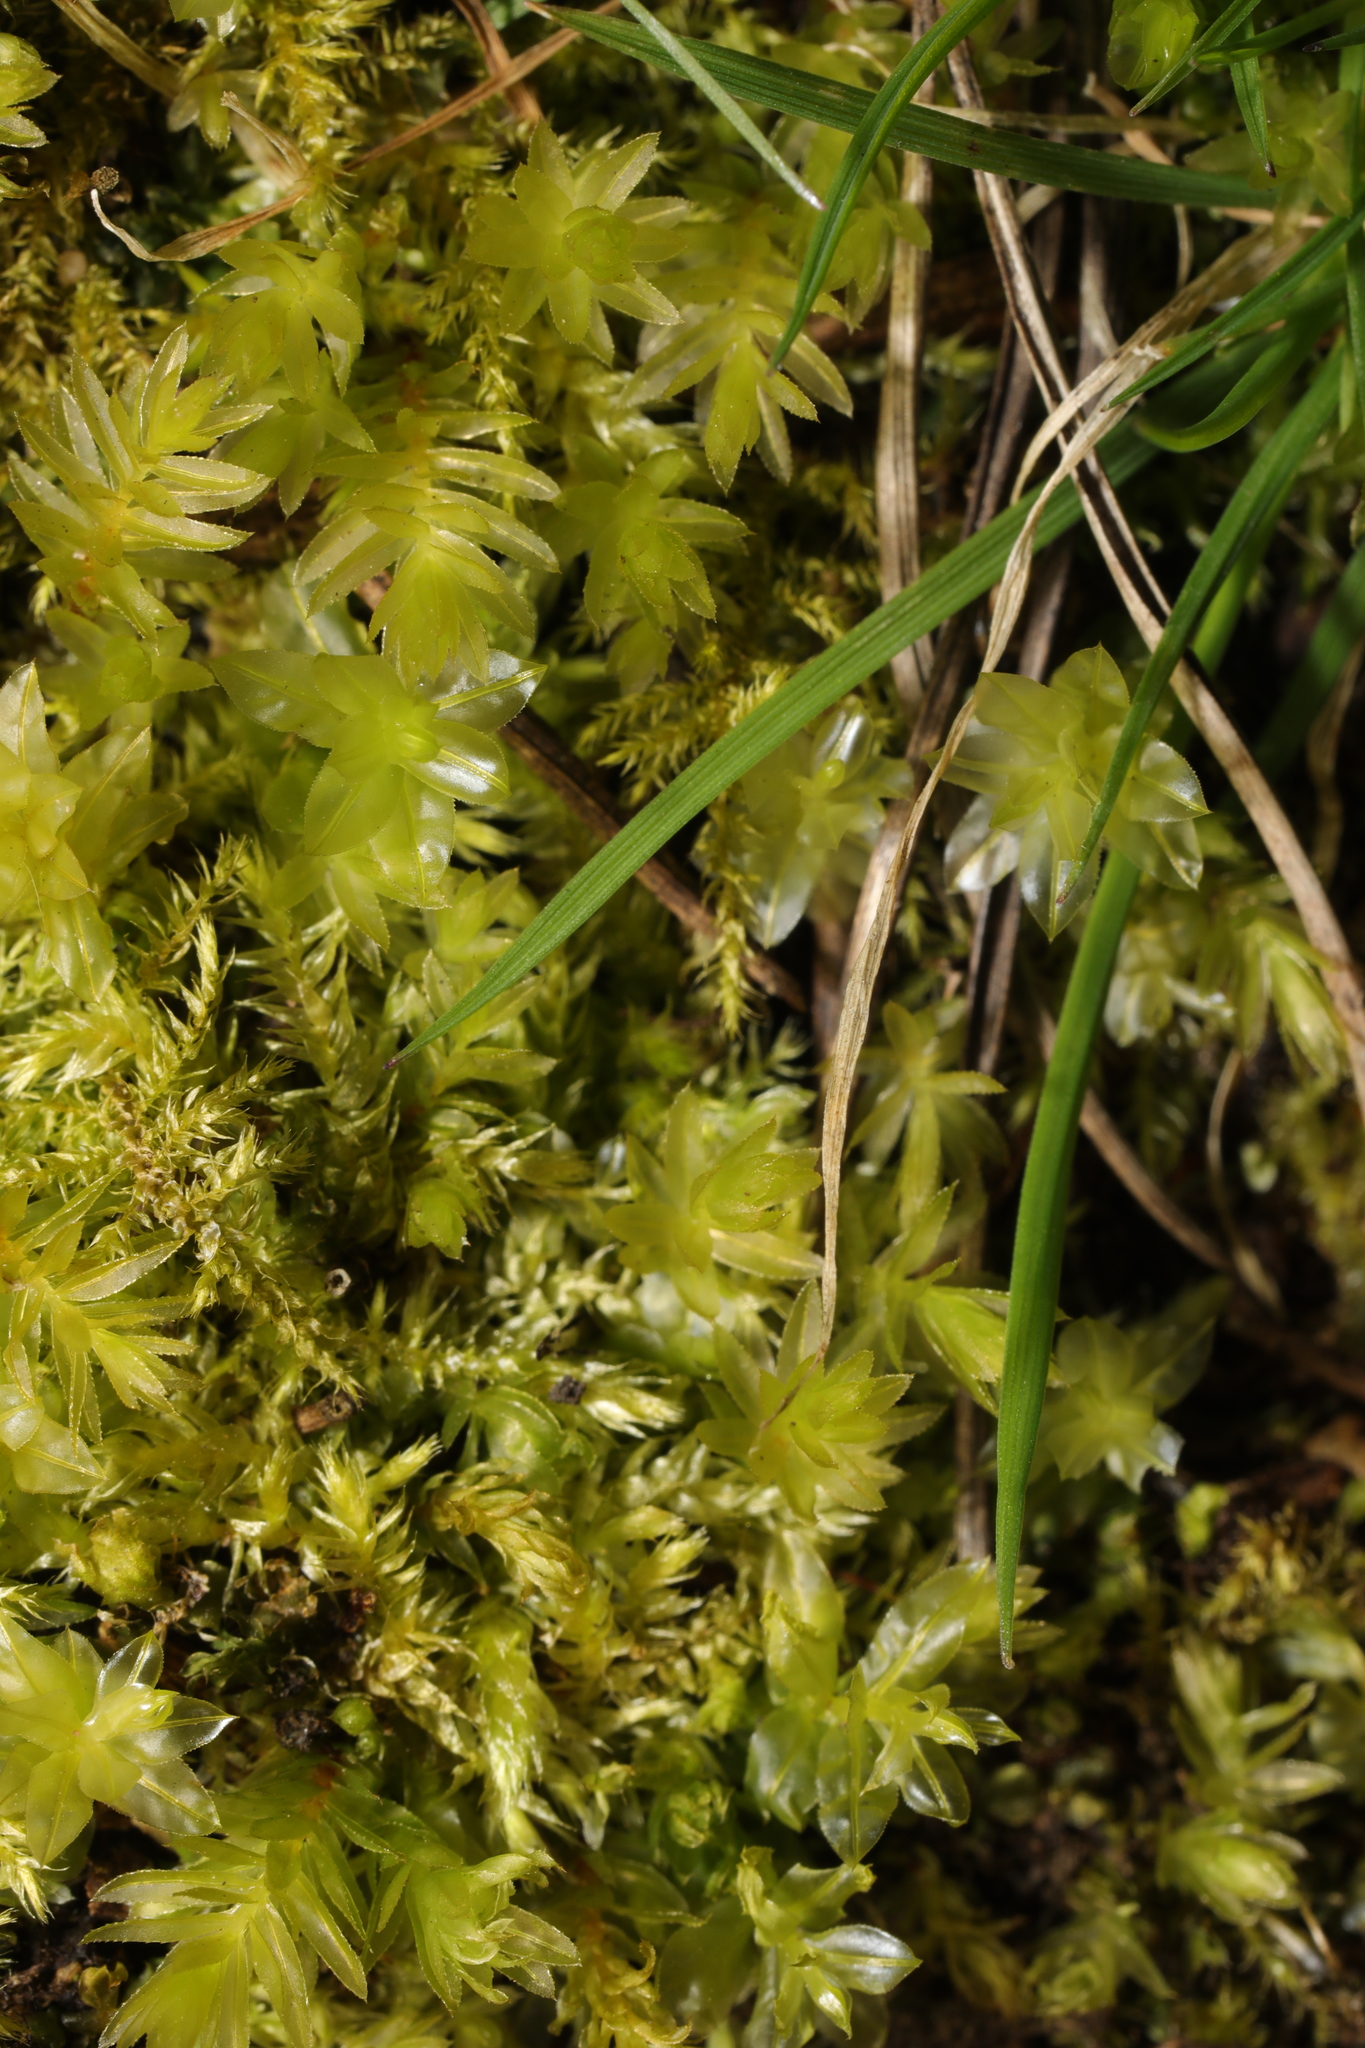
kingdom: Plantae
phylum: Bryophyta
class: Bryopsida
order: Bryales
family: Mniaceae
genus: Plagiomnium
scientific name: Plagiomnium undulatum
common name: Hart's-tongue thyme-moss
